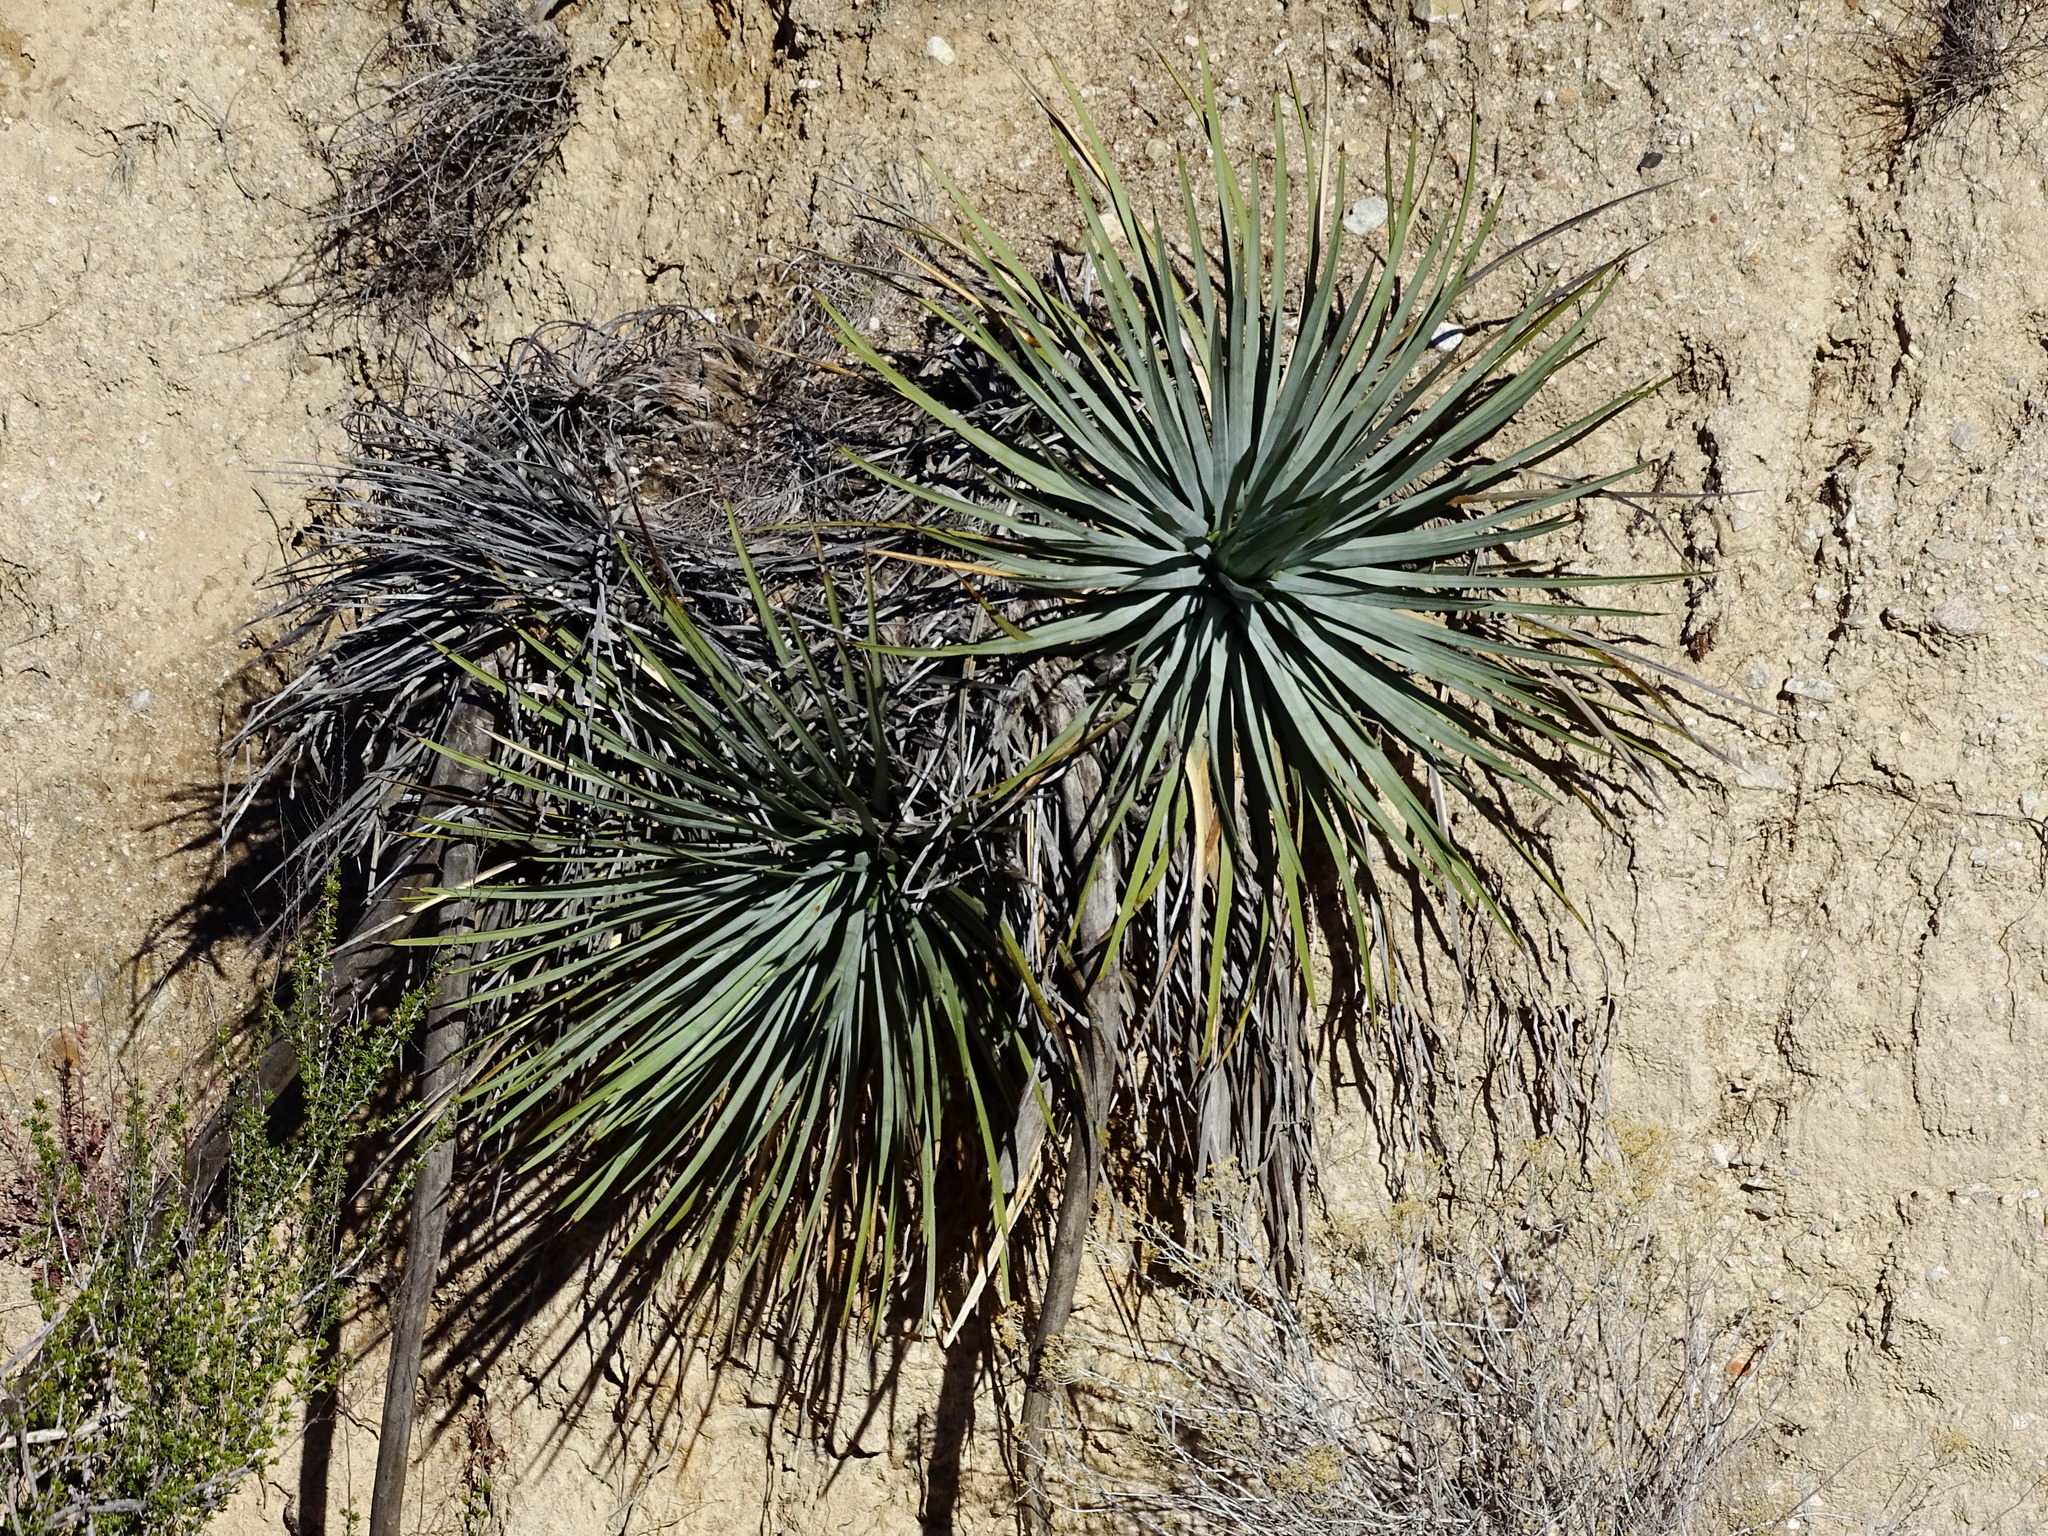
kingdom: Plantae
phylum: Tracheophyta
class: Liliopsida
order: Asparagales
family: Asparagaceae
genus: Hesperoyucca
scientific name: Hesperoyucca whipplei
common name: Our lord's-candle
